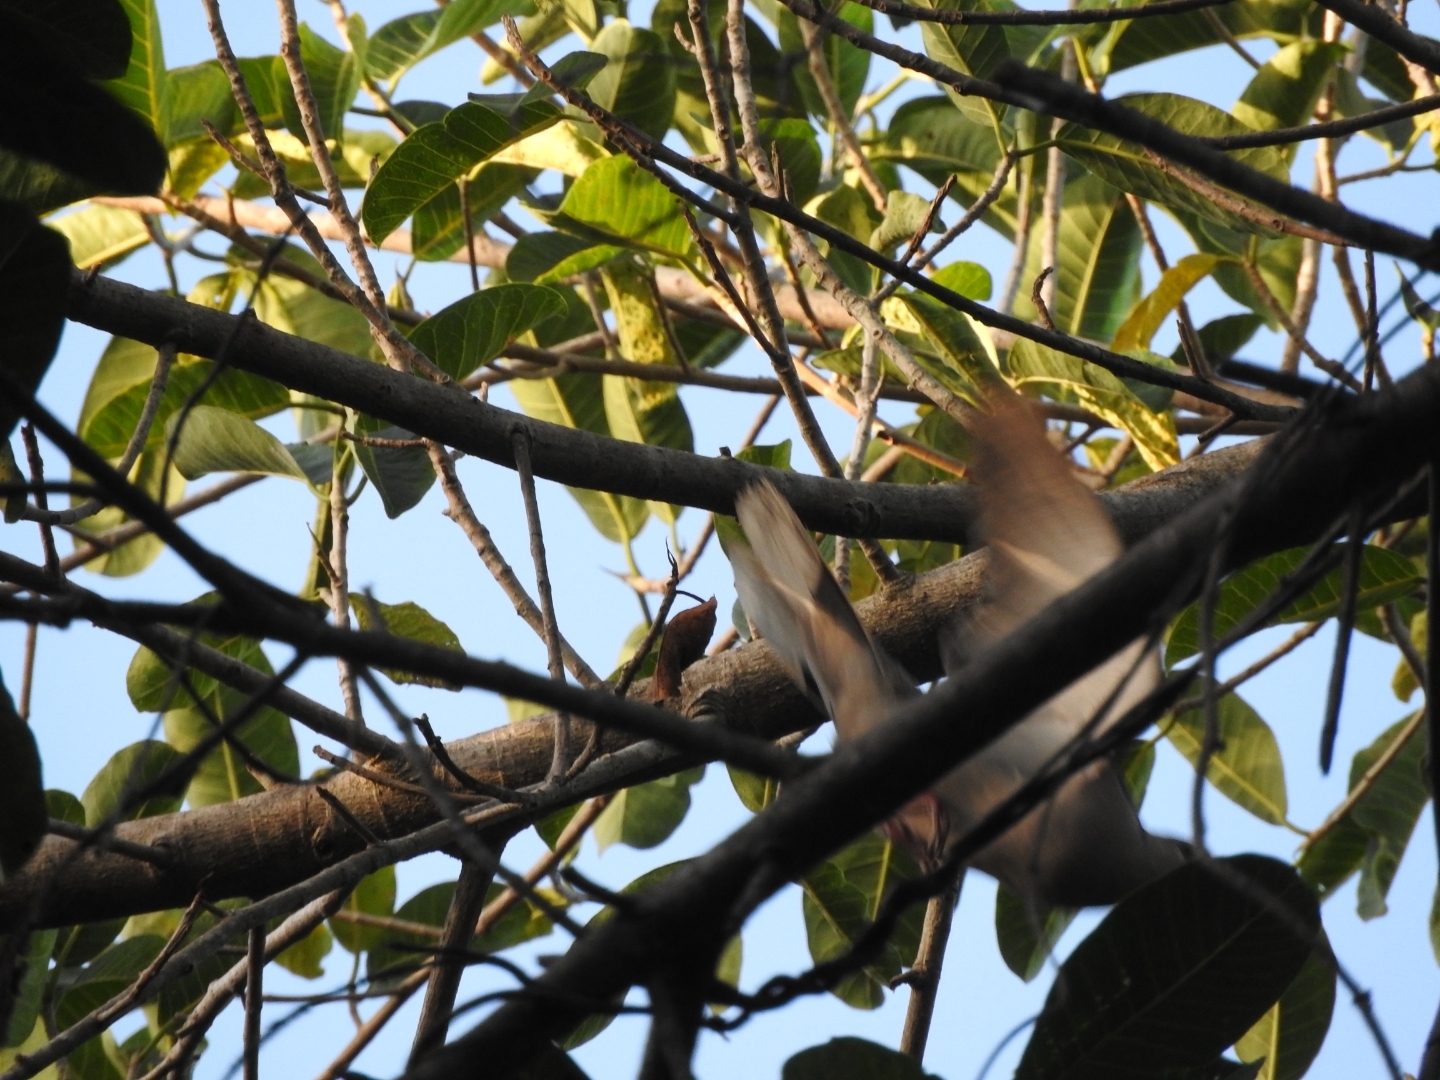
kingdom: Animalia
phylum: Chordata
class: Aves
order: Columbiformes
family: Columbidae
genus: Streptopelia
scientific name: Streptopelia decaocto
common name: Eurasian collared dove
